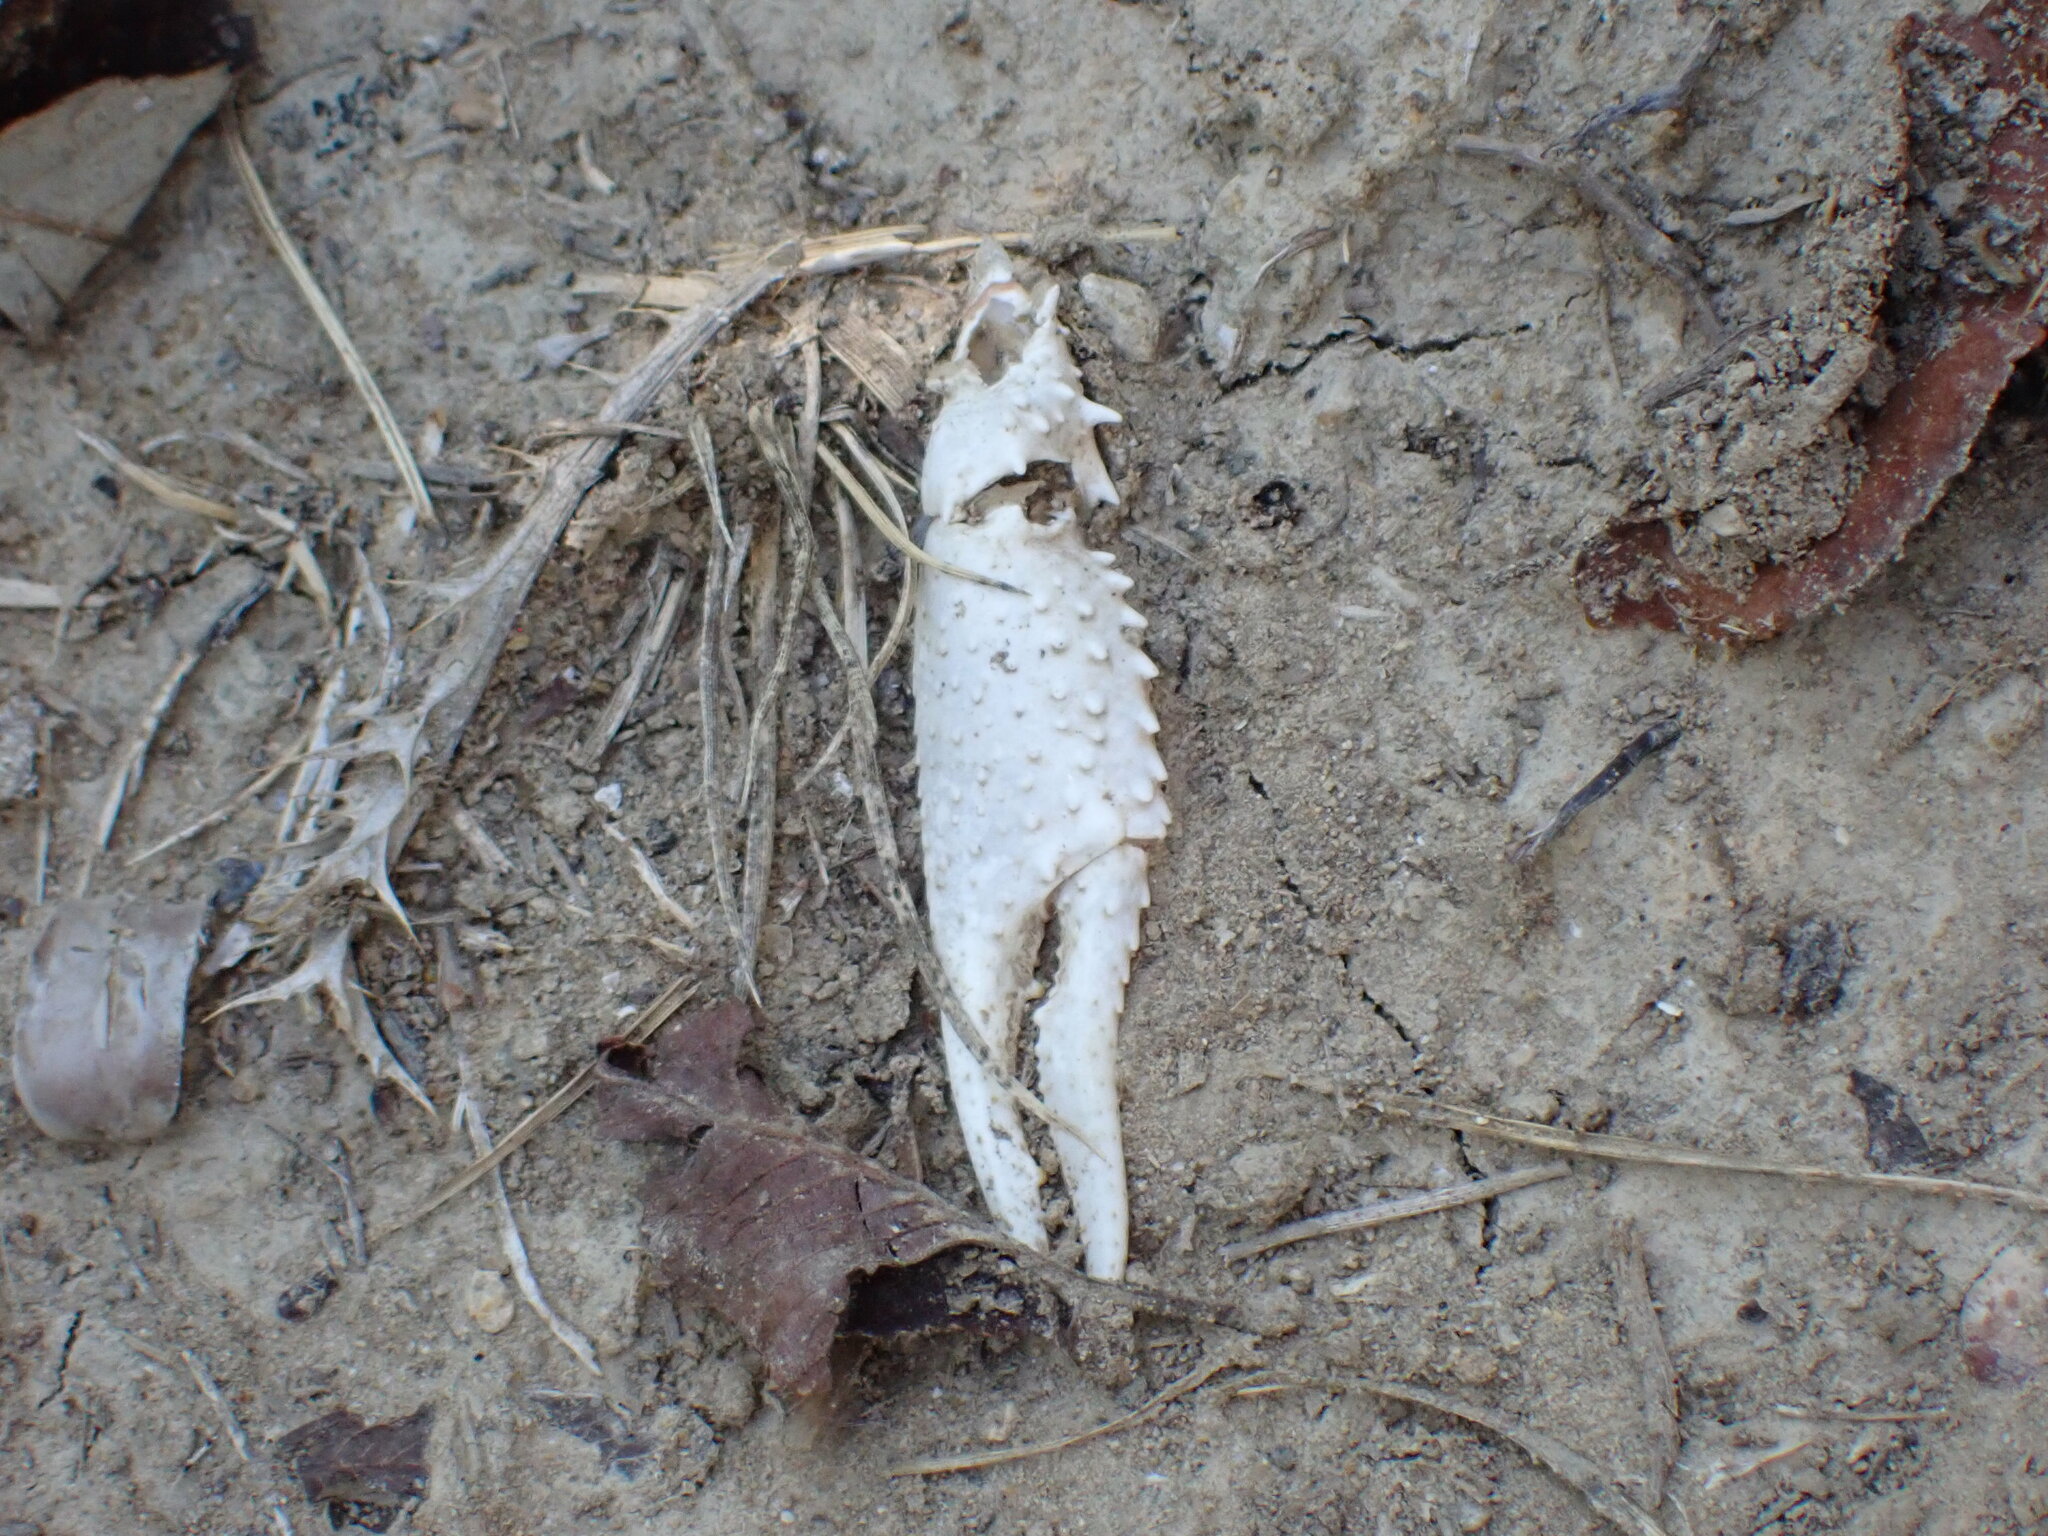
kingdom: Animalia
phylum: Arthropoda
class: Malacostraca
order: Decapoda
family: Cambaridae
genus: Procambarus
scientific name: Procambarus clarkii
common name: Red swamp crayfish
